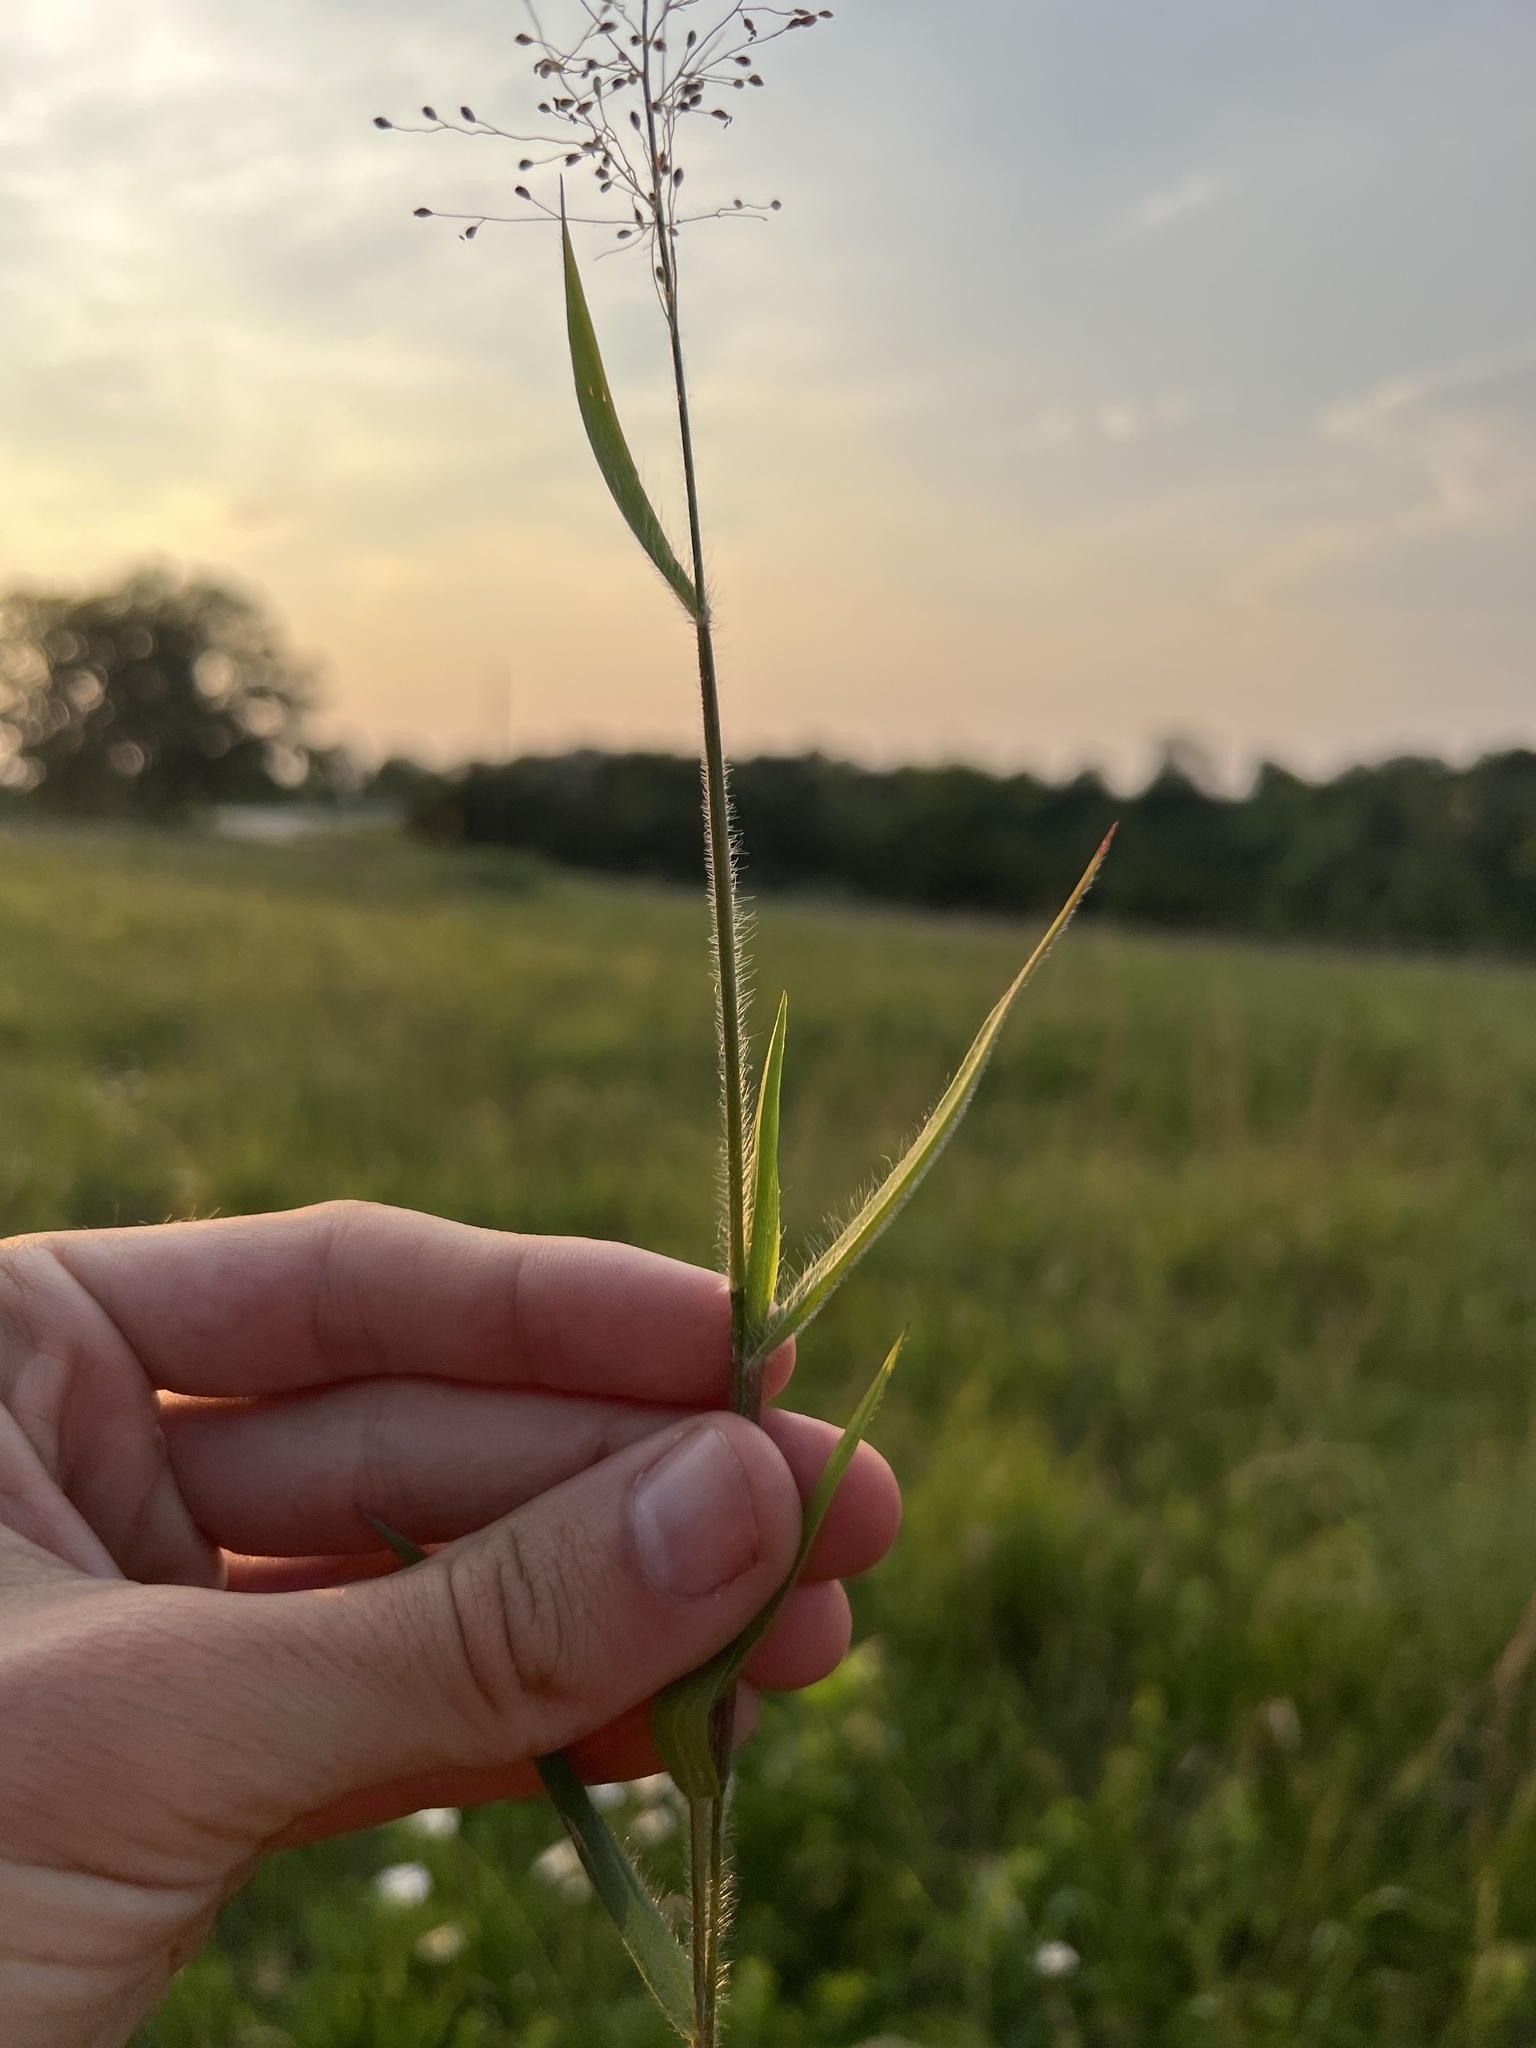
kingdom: Plantae
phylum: Tracheophyta
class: Liliopsida
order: Poales
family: Poaceae
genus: Dichanthelium
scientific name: Dichanthelium lanuginosum
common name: Woolly panicgrass
